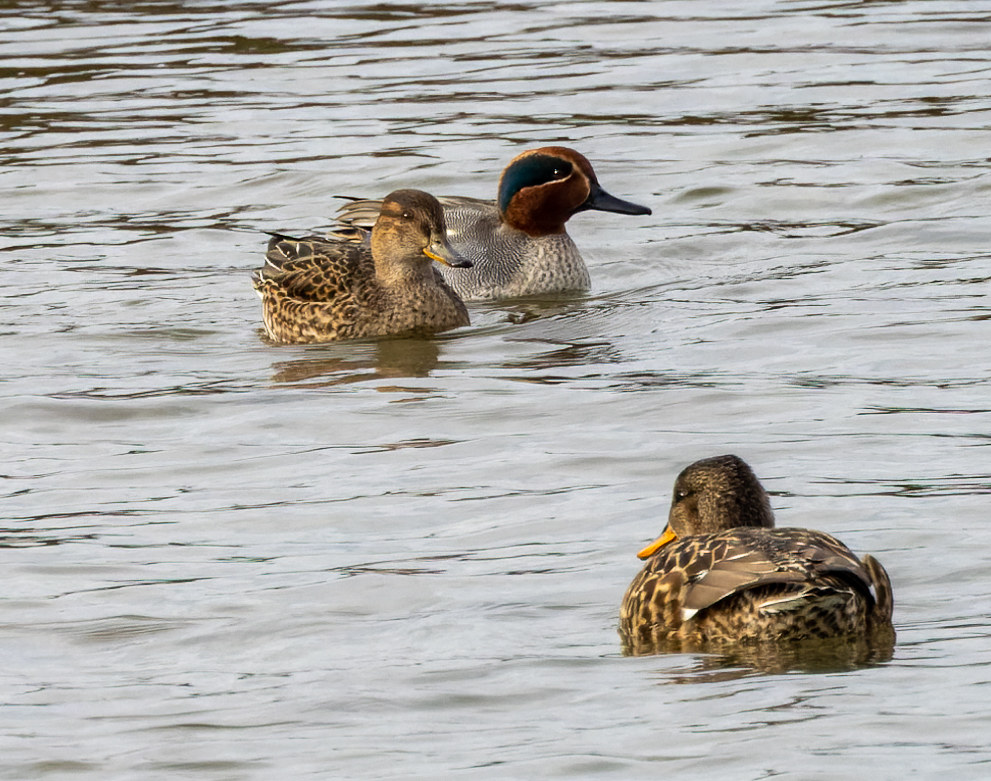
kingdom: Animalia
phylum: Chordata
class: Aves
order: Anseriformes
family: Anatidae
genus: Anas
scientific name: Anas crecca
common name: Eurasian teal
